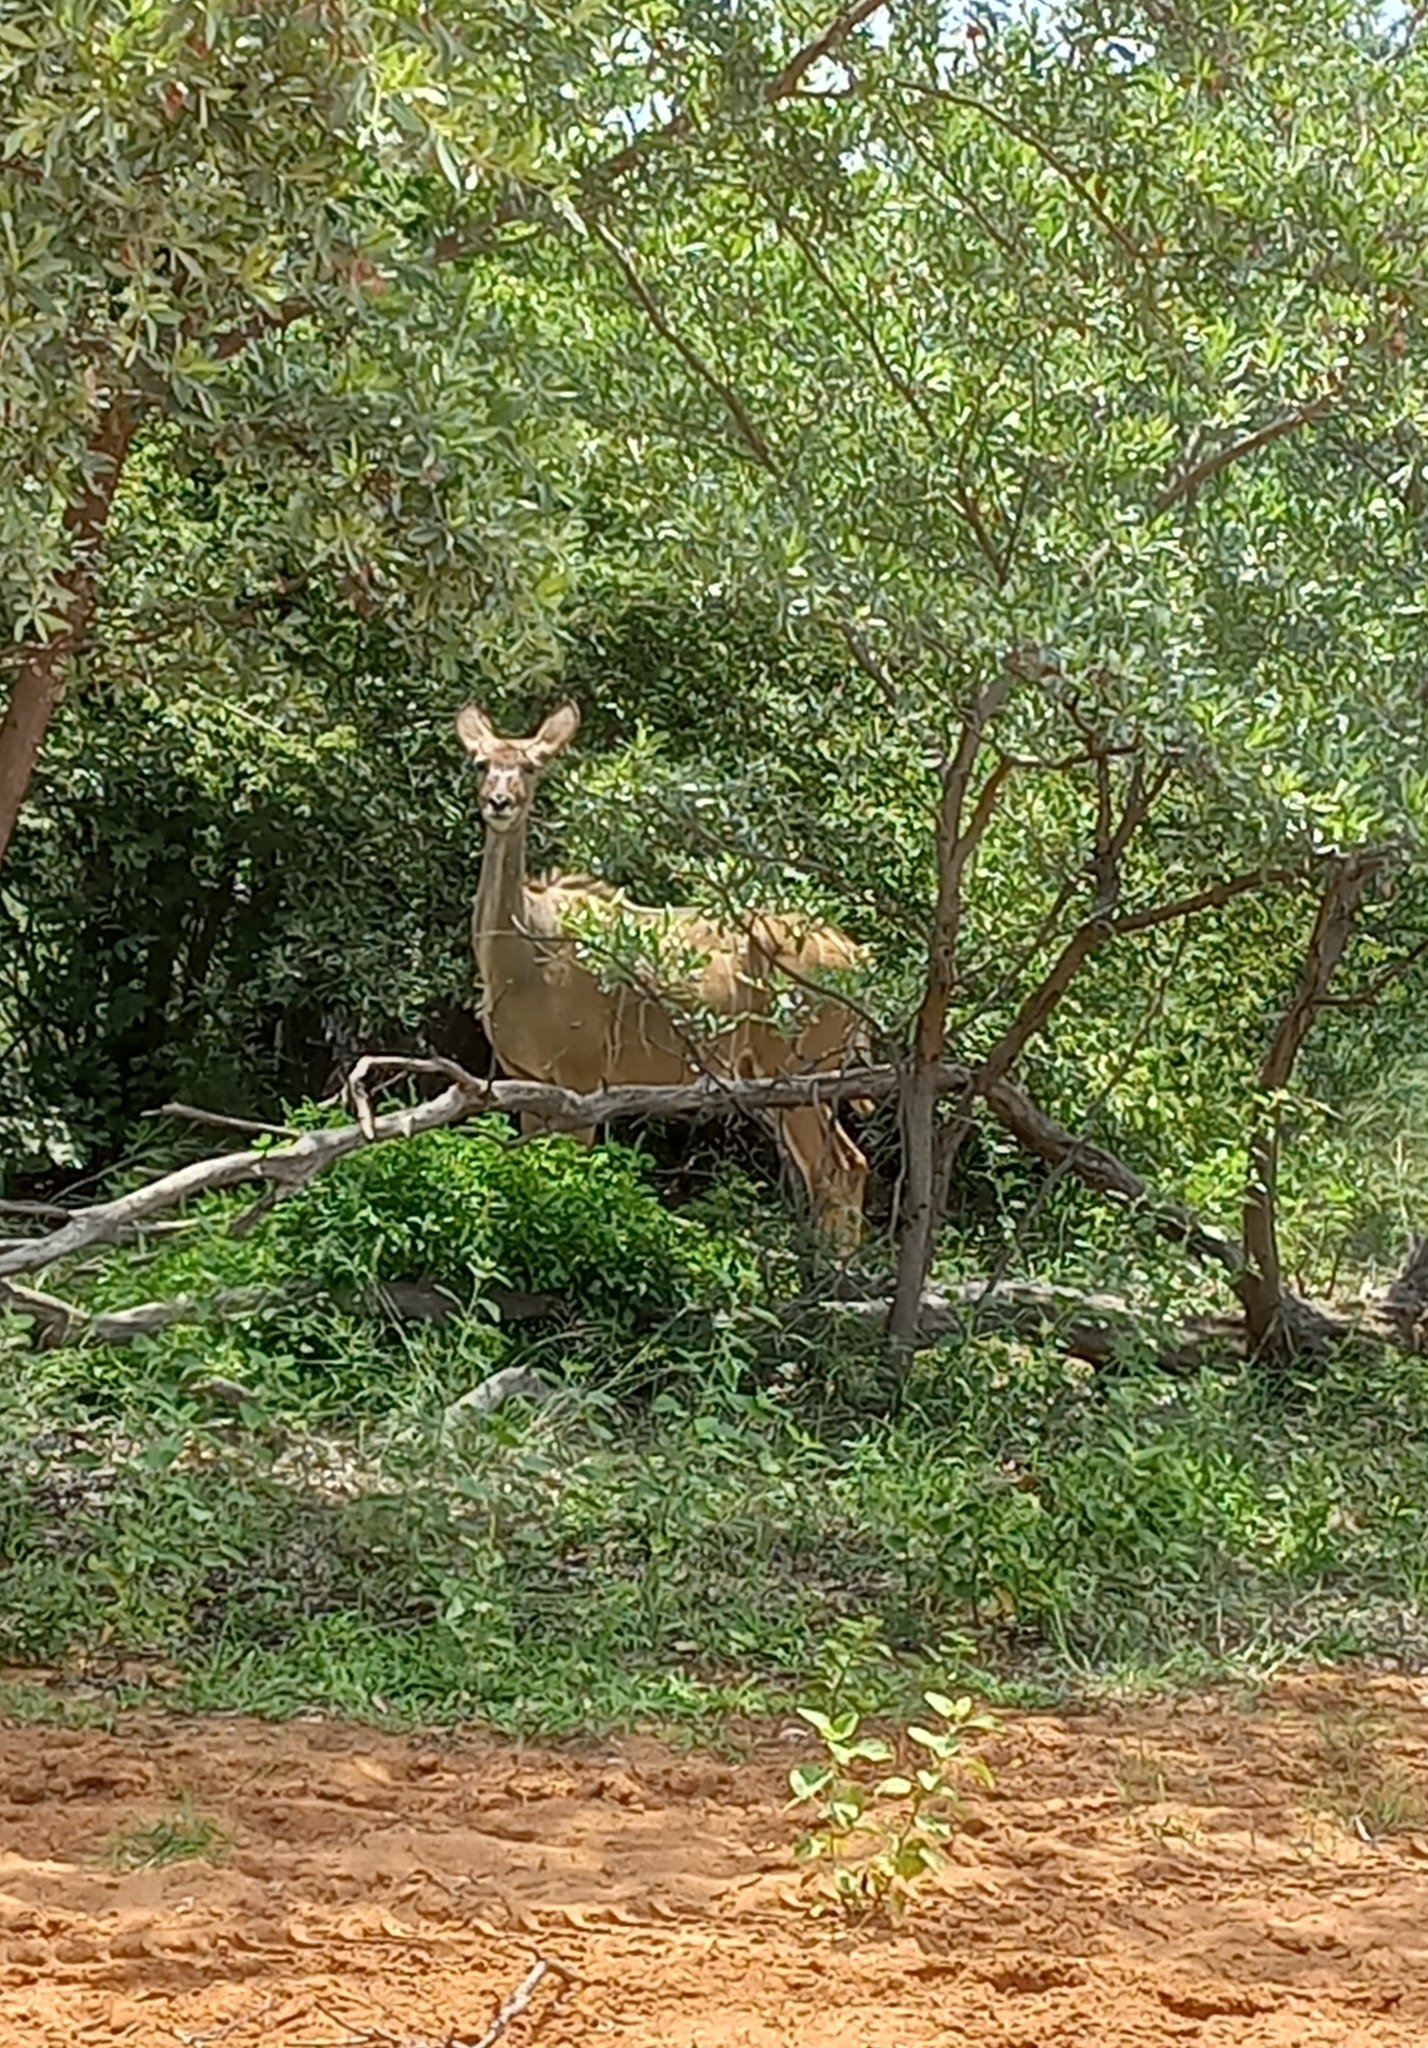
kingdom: Animalia
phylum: Chordata
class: Mammalia
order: Artiodactyla
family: Bovidae
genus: Tragelaphus
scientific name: Tragelaphus strepsiceros
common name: Greater kudu
